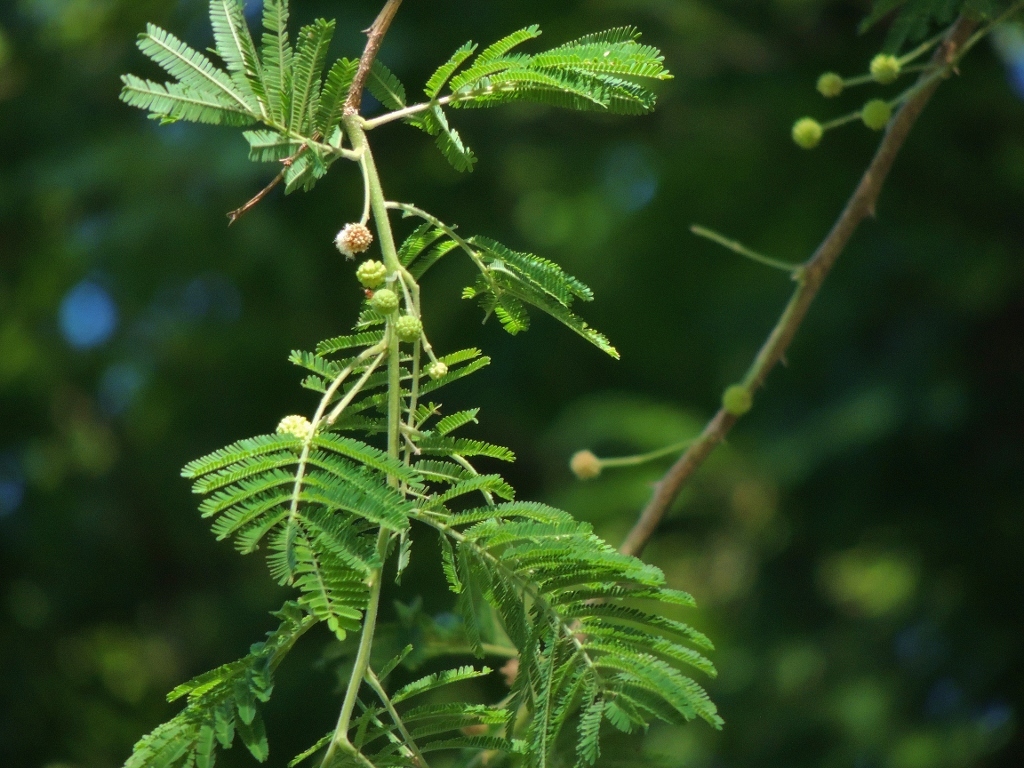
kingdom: Plantae
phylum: Tracheophyta
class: Magnoliopsida
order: Fabales
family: Fabaceae
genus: Vachellia
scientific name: Vachellia sieberiana
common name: Flat-topped thorn
